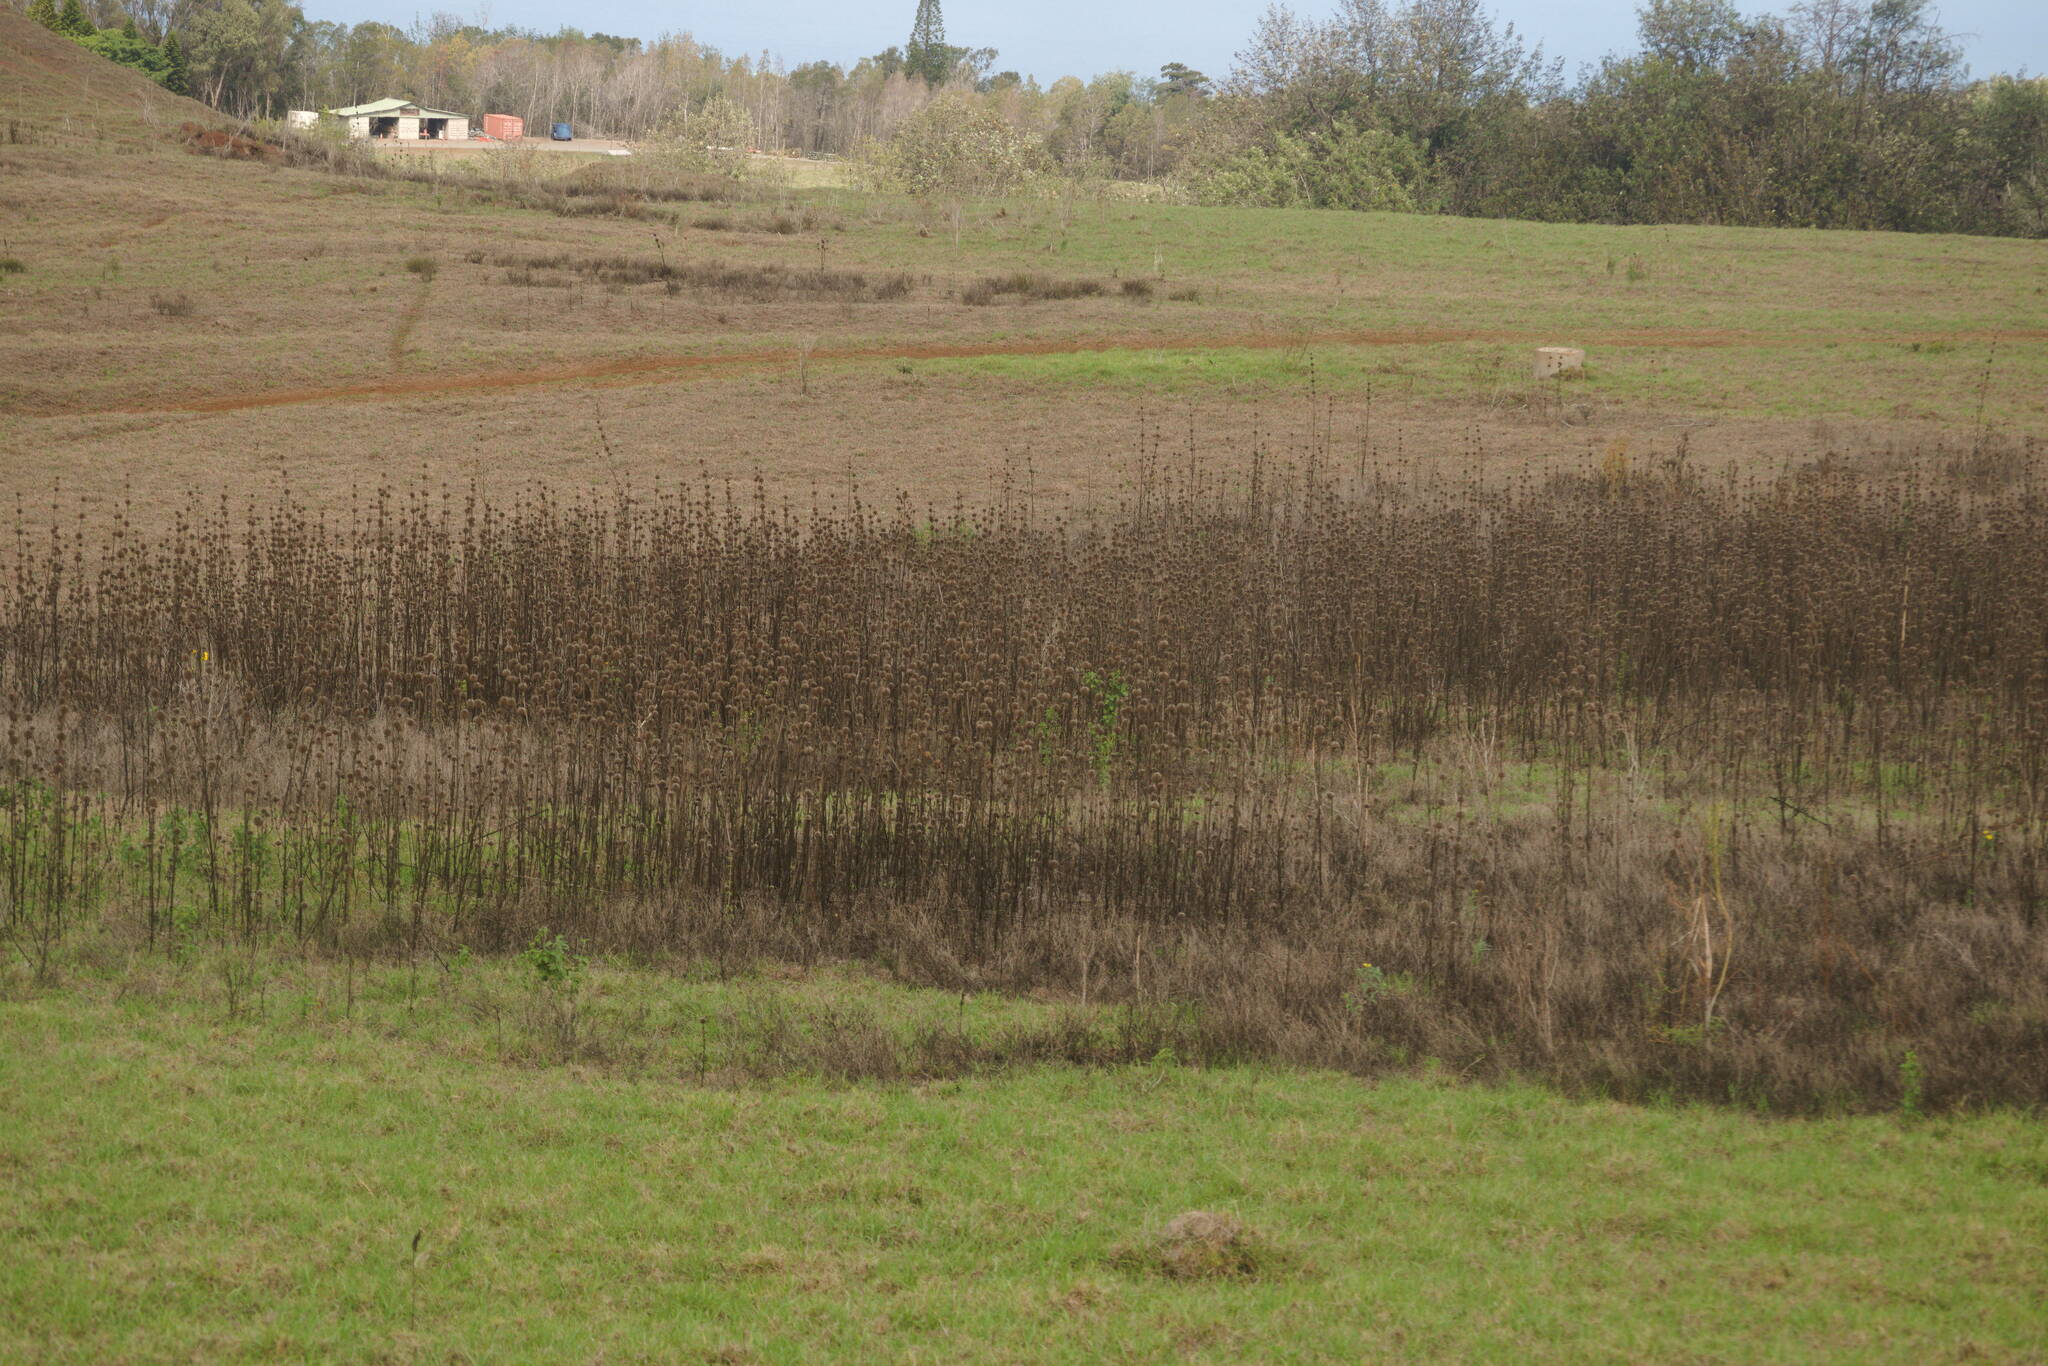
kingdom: Plantae
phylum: Tracheophyta
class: Magnoliopsida
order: Lamiales
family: Lamiaceae
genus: Leonotis
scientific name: Leonotis nepetifolia
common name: Christmas candlestick
